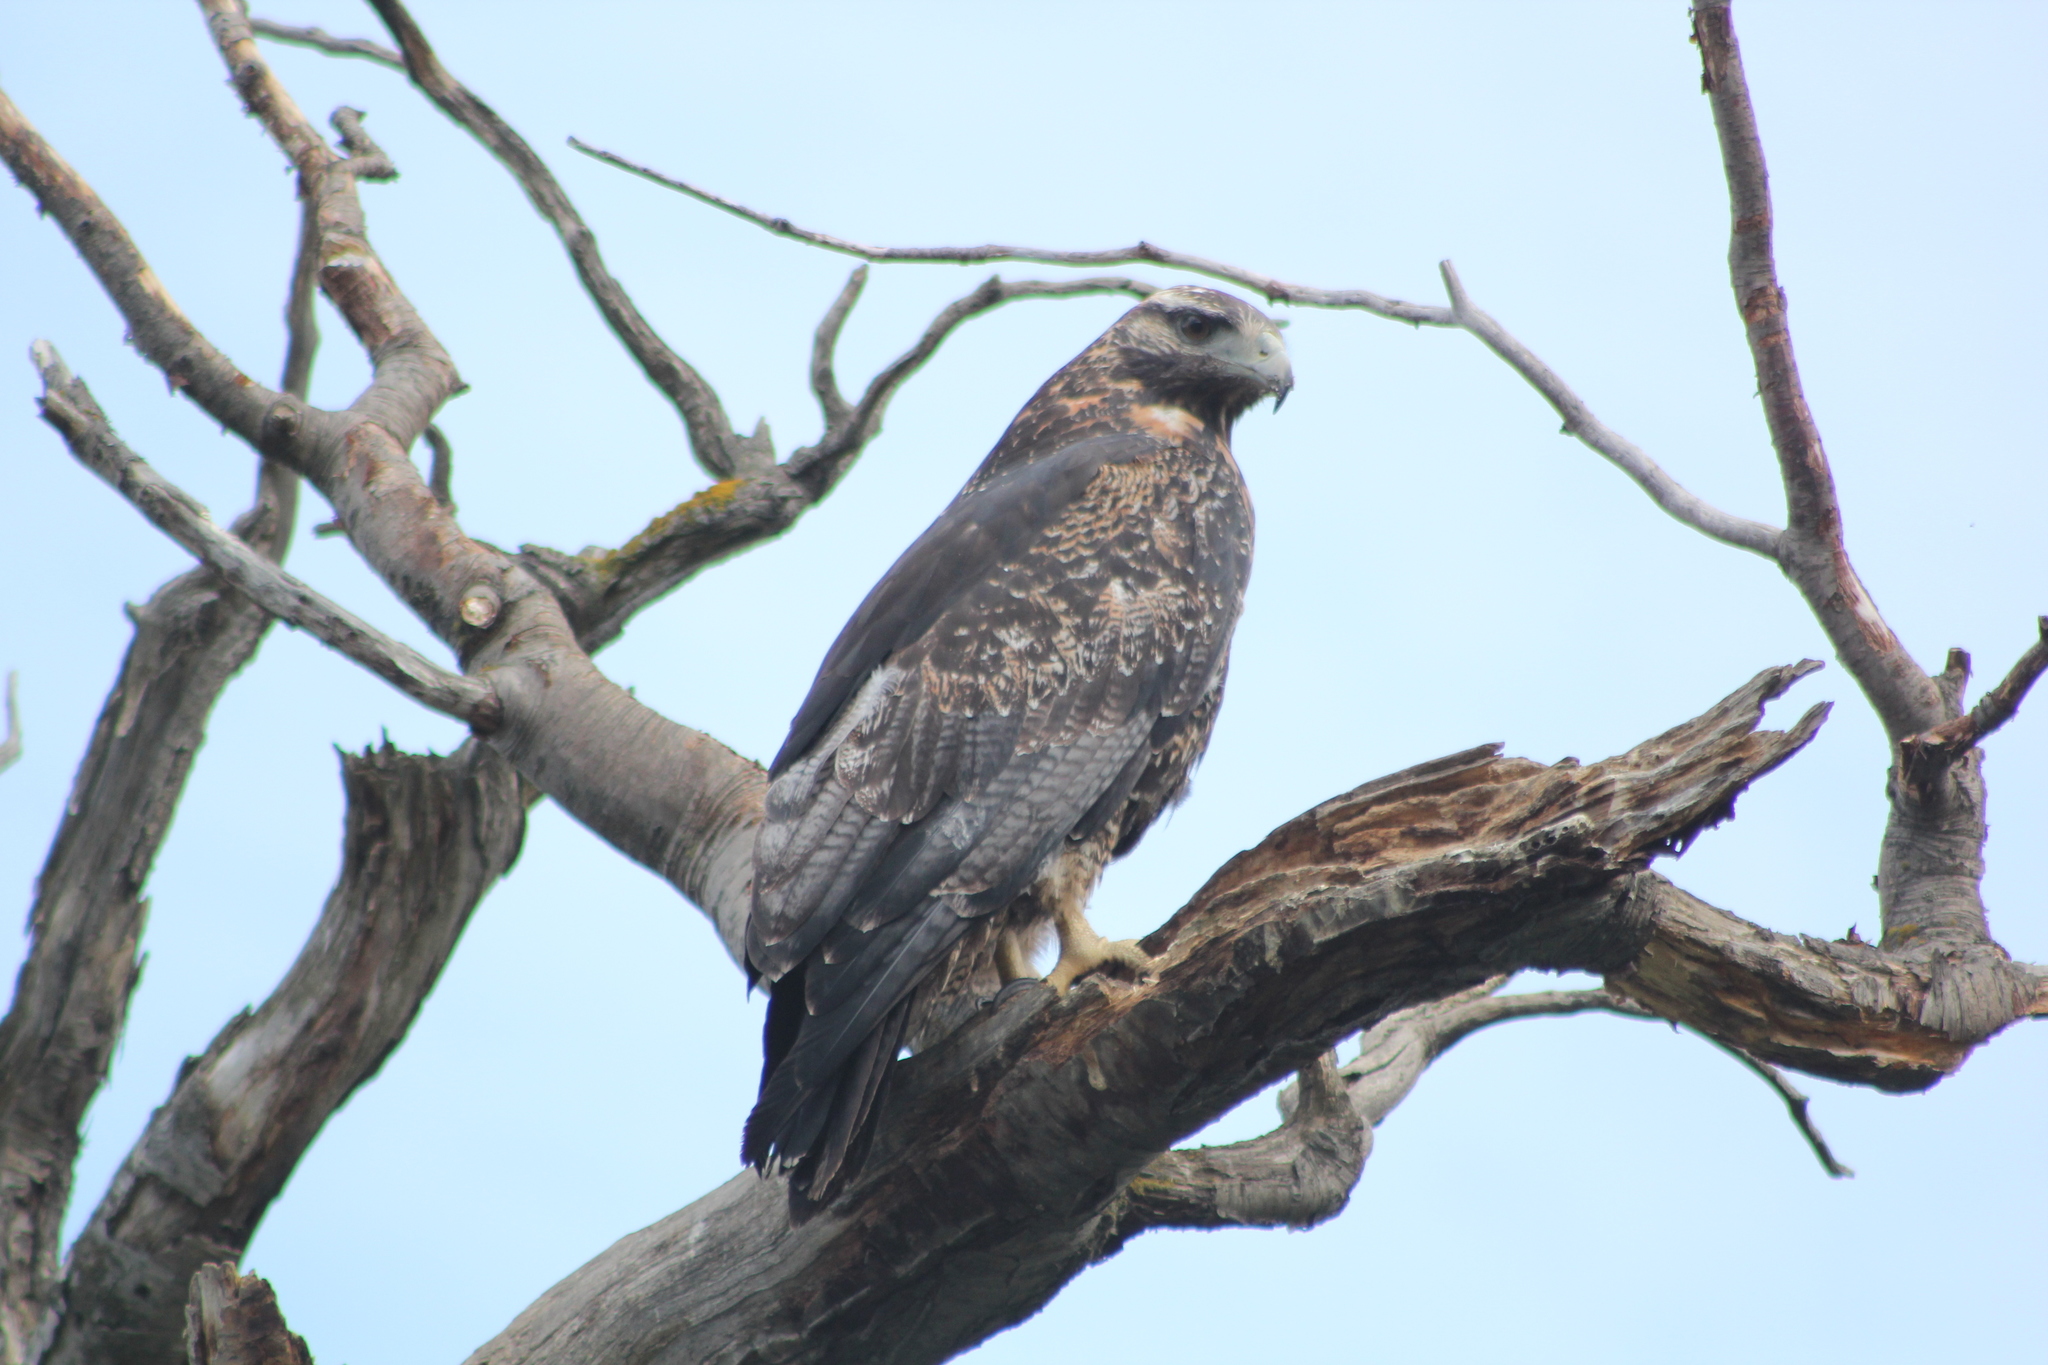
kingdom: Animalia
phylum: Chordata
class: Aves
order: Accipitriformes
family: Accipitridae
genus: Geranoaetus
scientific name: Geranoaetus melanoleucus
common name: Black-chested buzzard-eagle
